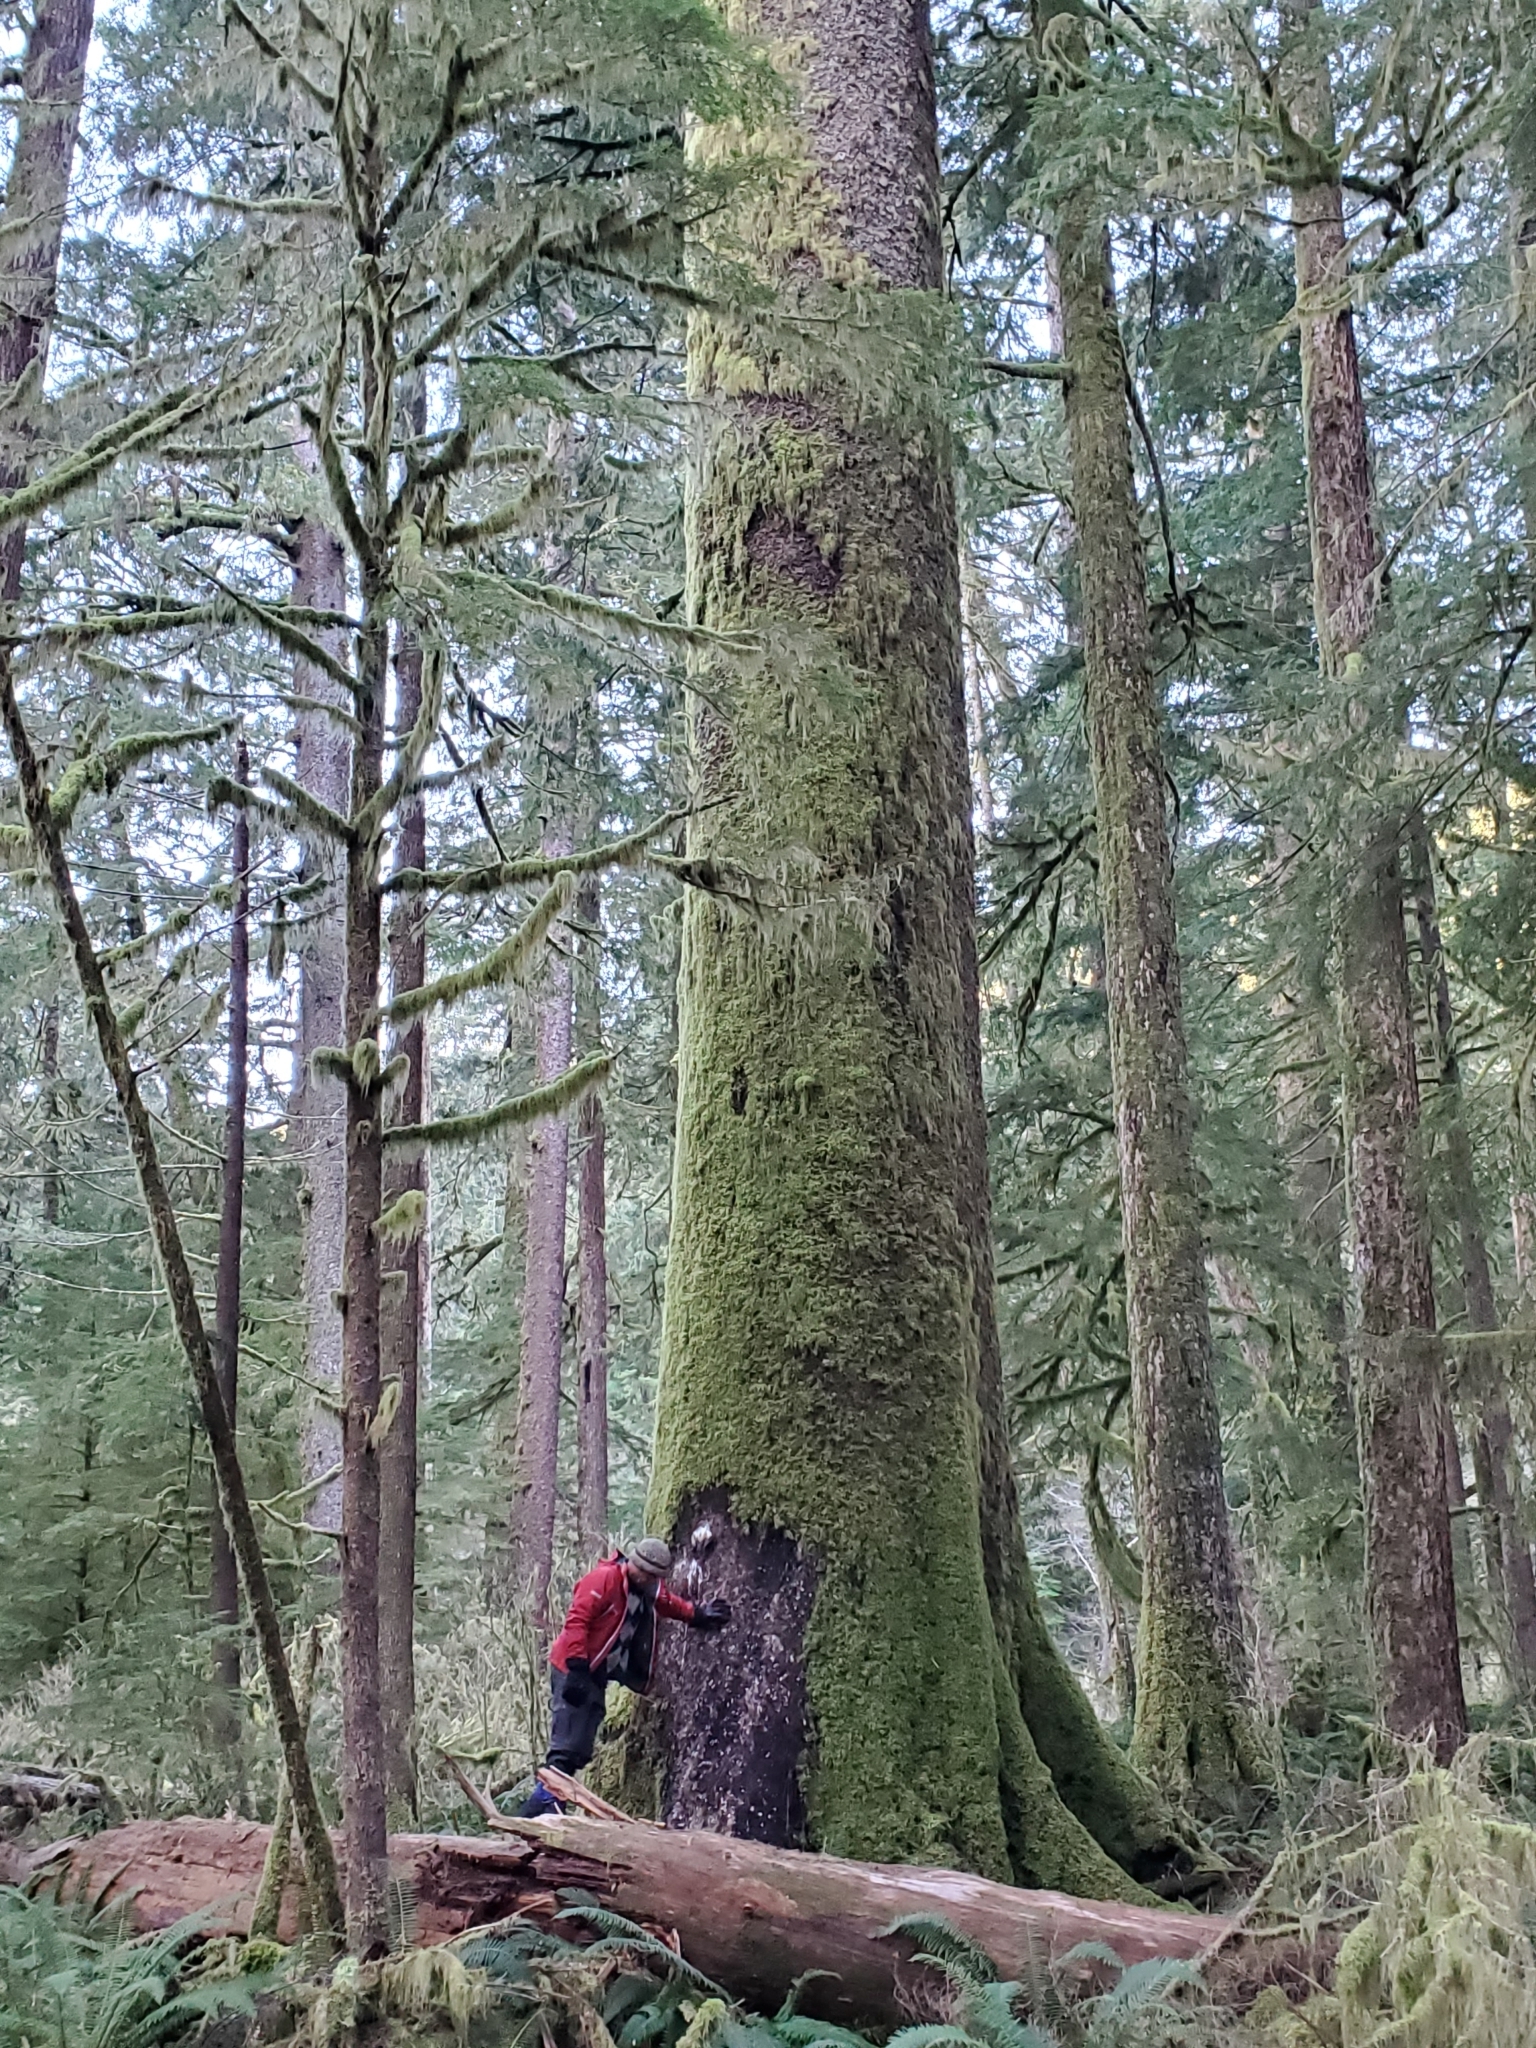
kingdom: Plantae
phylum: Tracheophyta
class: Pinopsida
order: Pinales
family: Pinaceae
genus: Picea
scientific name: Picea sitchensis
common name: Sitka spruce
